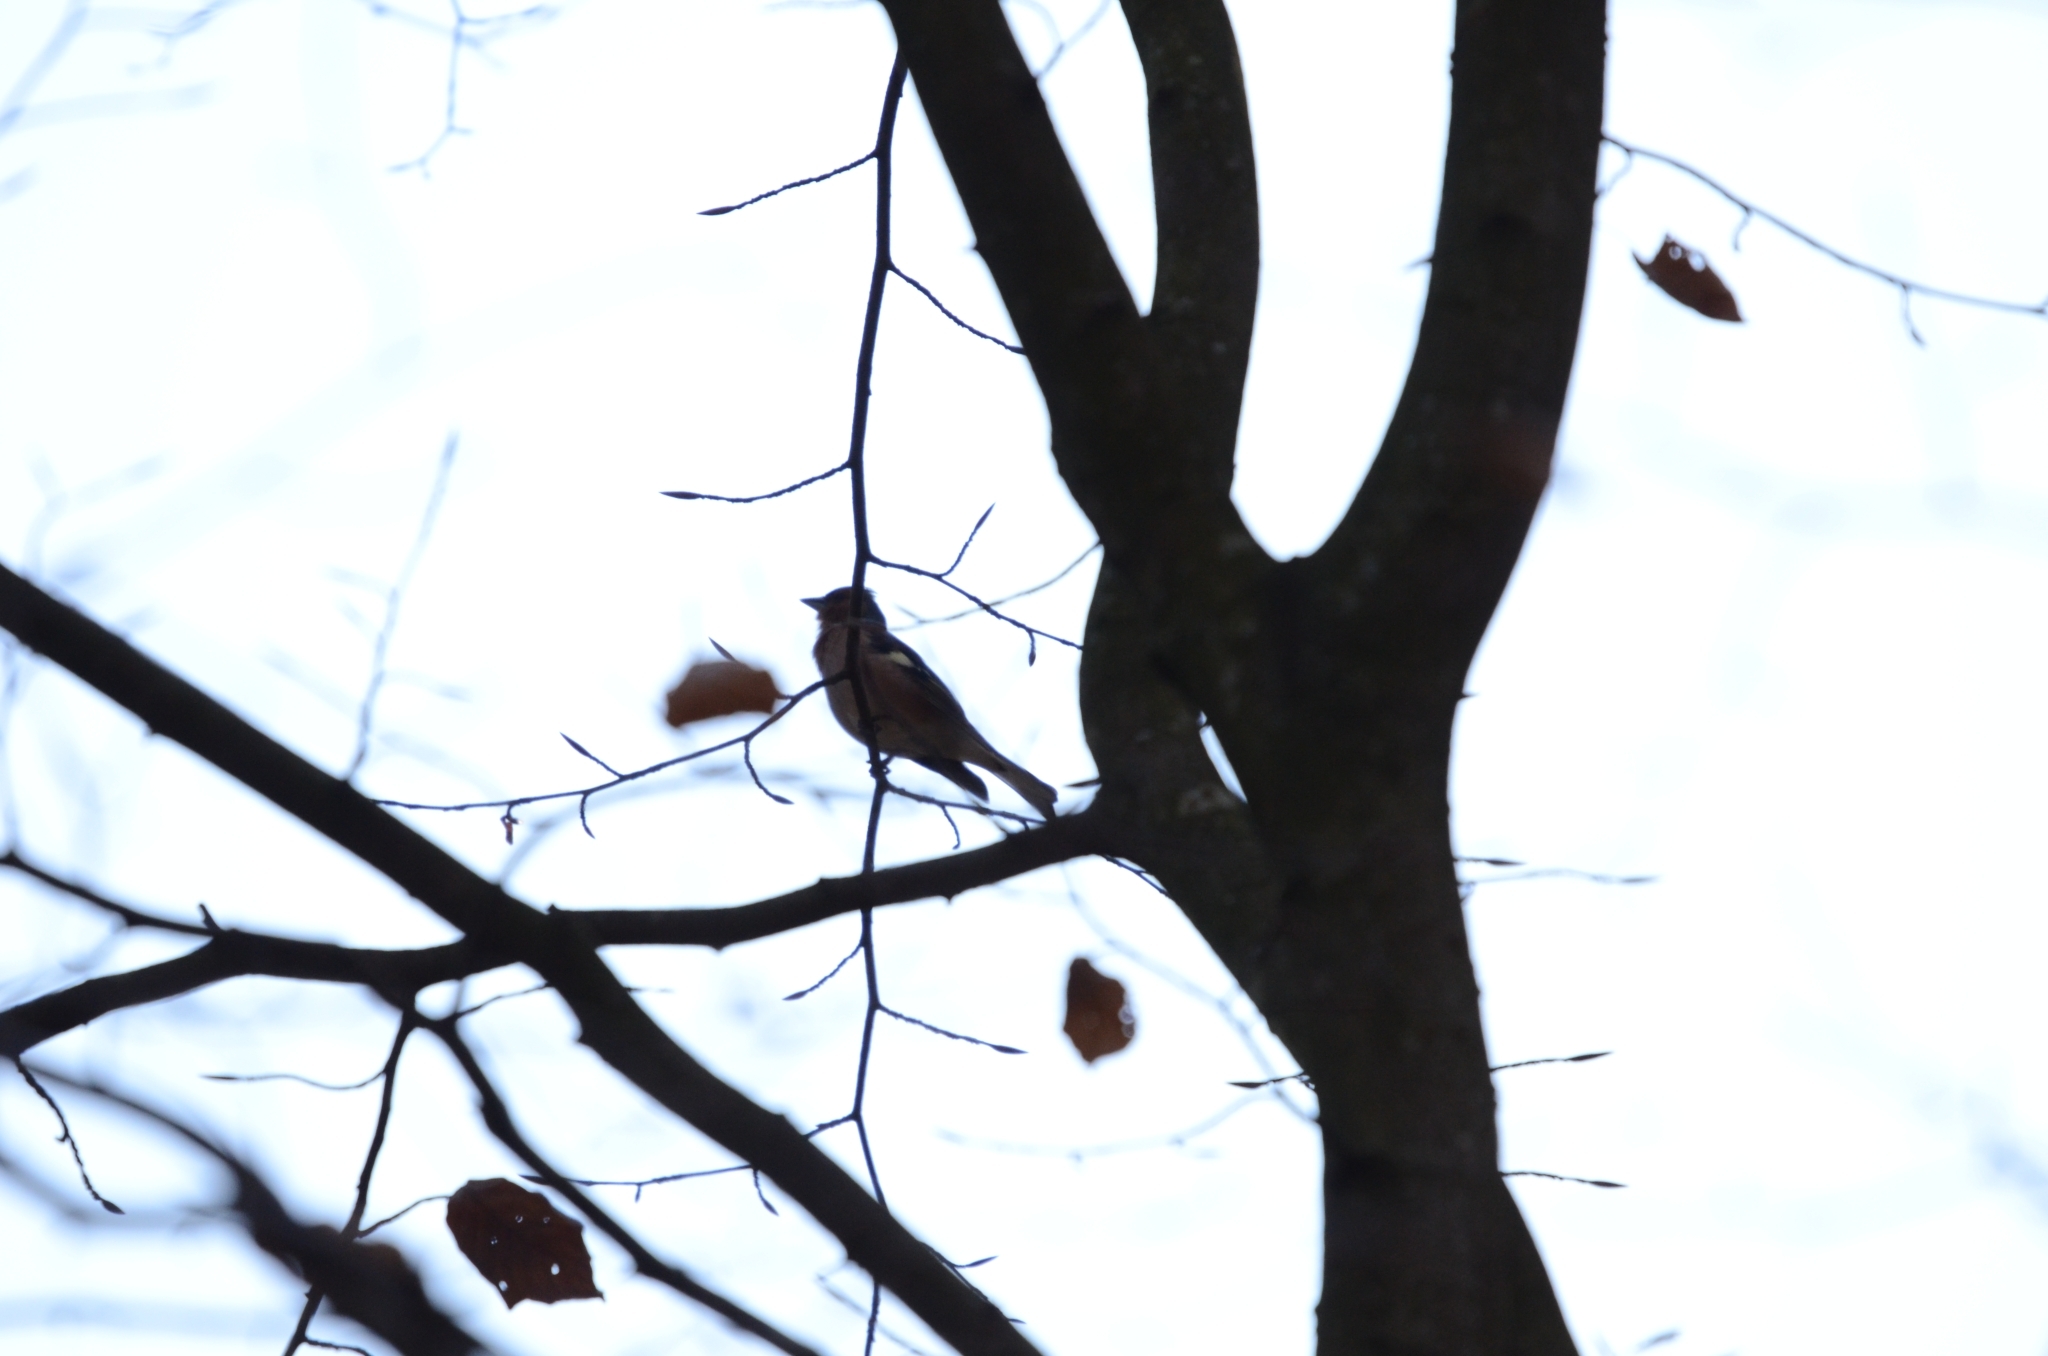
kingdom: Animalia
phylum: Chordata
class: Aves
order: Passeriformes
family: Fringillidae
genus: Fringilla
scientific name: Fringilla coelebs
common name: Common chaffinch
